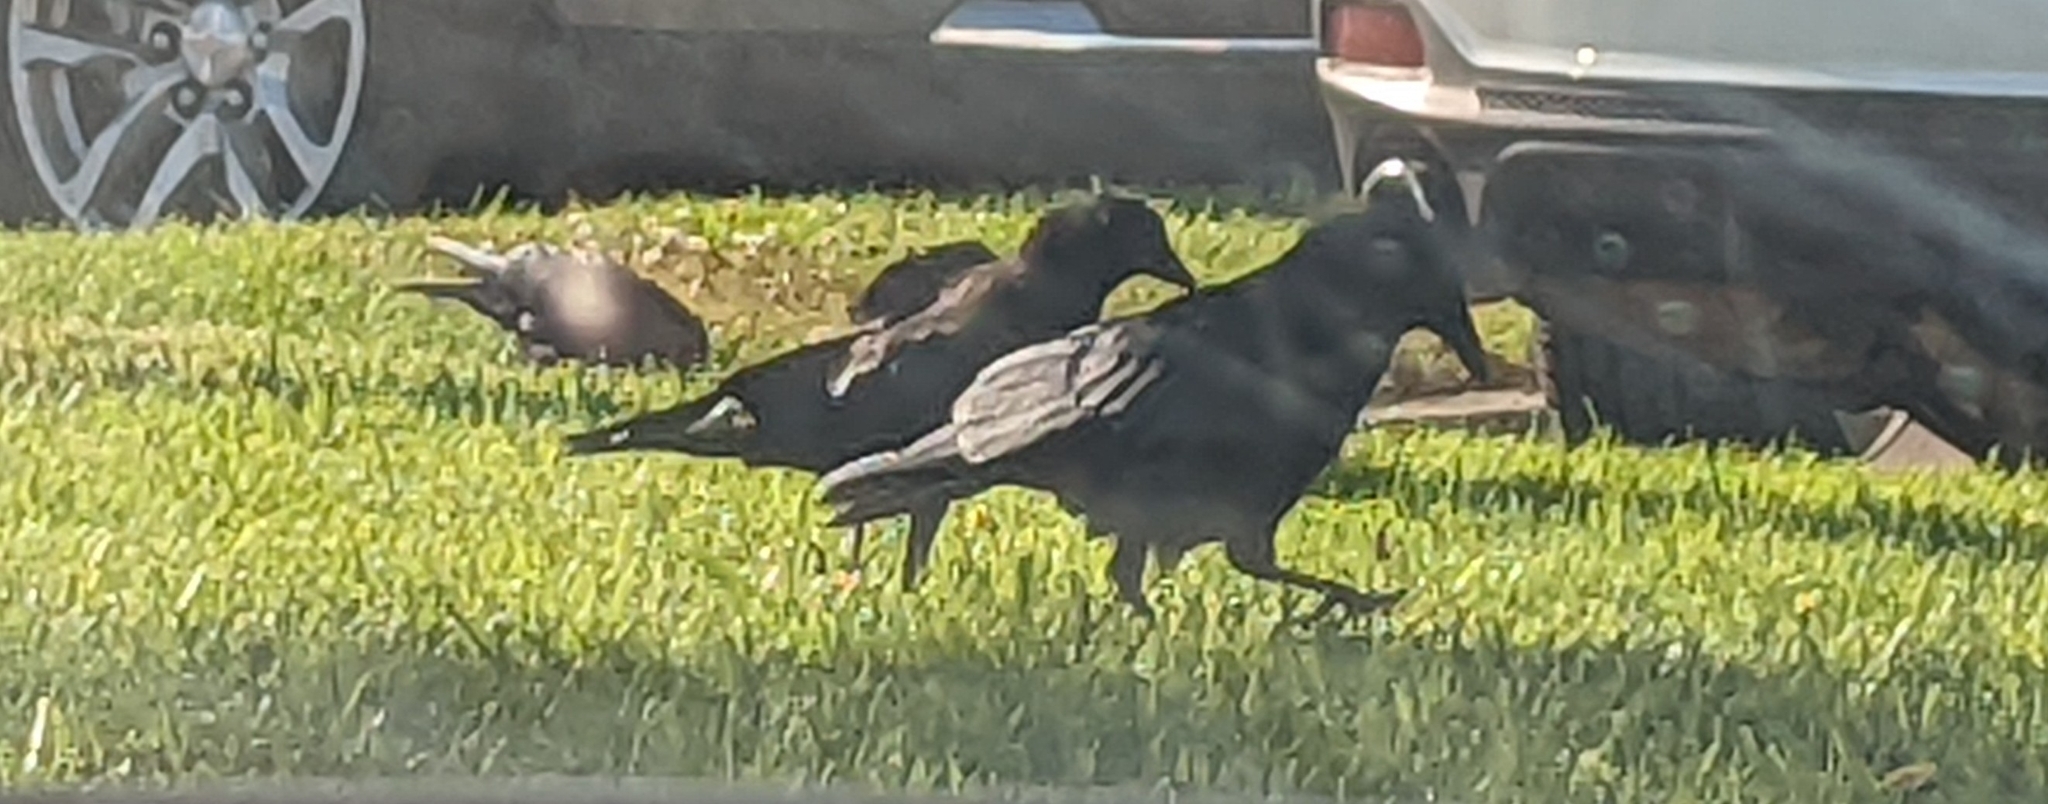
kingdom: Animalia
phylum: Chordata
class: Aves
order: Passeriformes
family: Corvidae
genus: Corvus
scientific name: Corvus brachyrhynchos
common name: American crow
